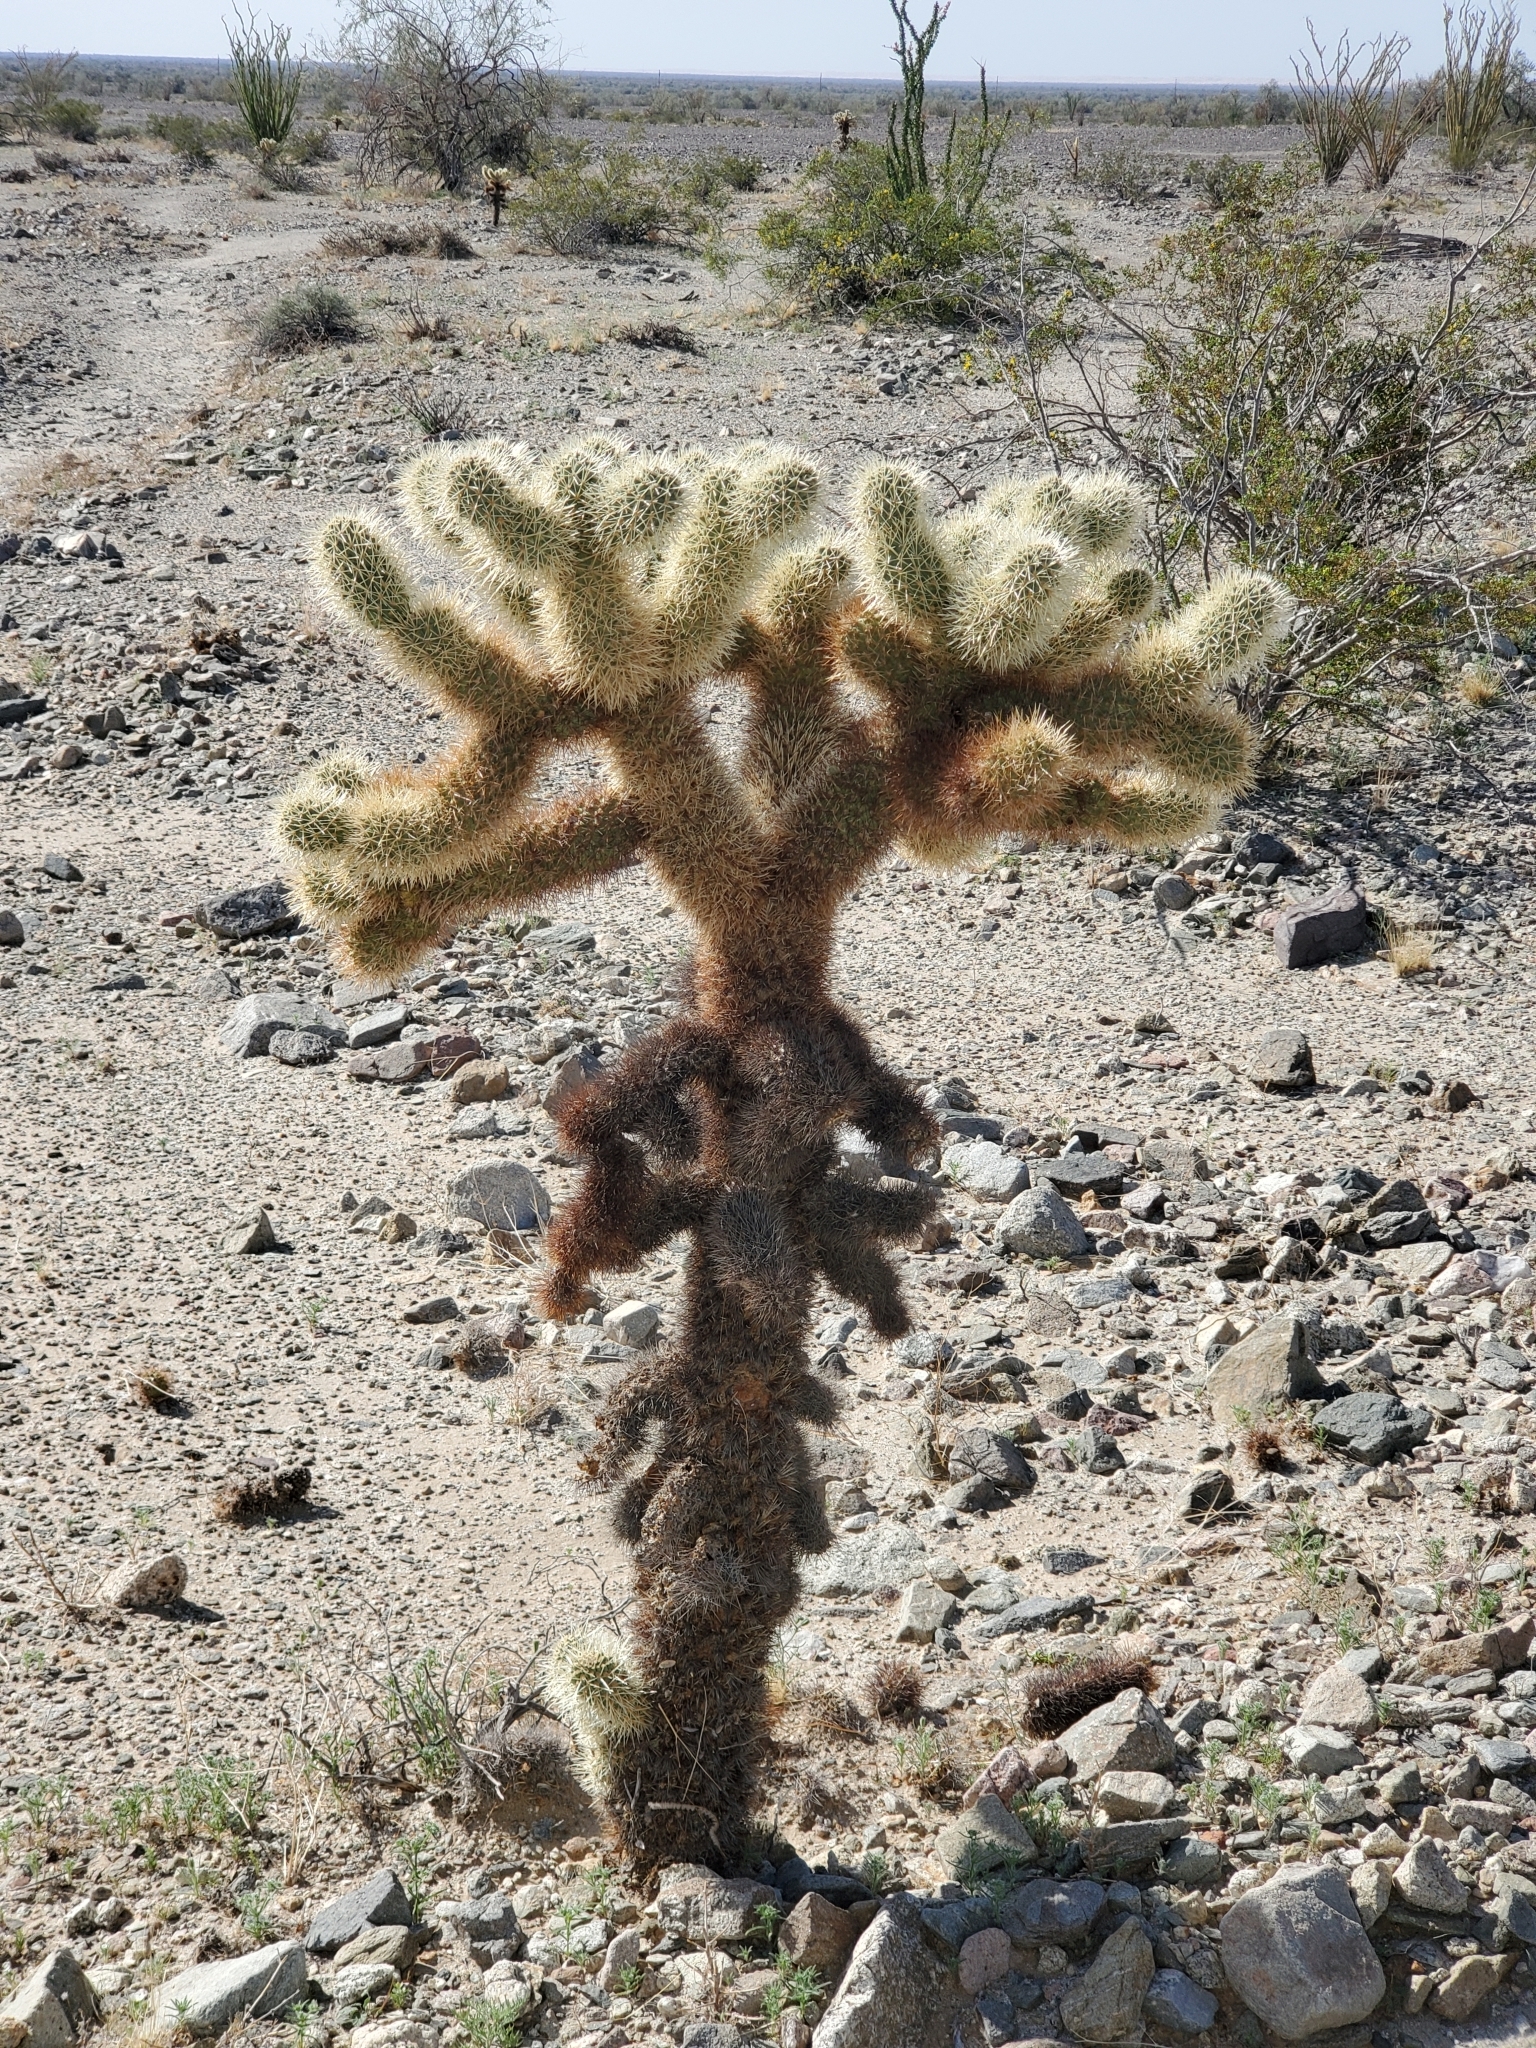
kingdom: Plantae
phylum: Tracheophyta
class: Magnoliopsida
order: Caryophyllales
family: Cactaceae
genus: Cylindropuntia
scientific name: Cylindropuntia fosbergii
